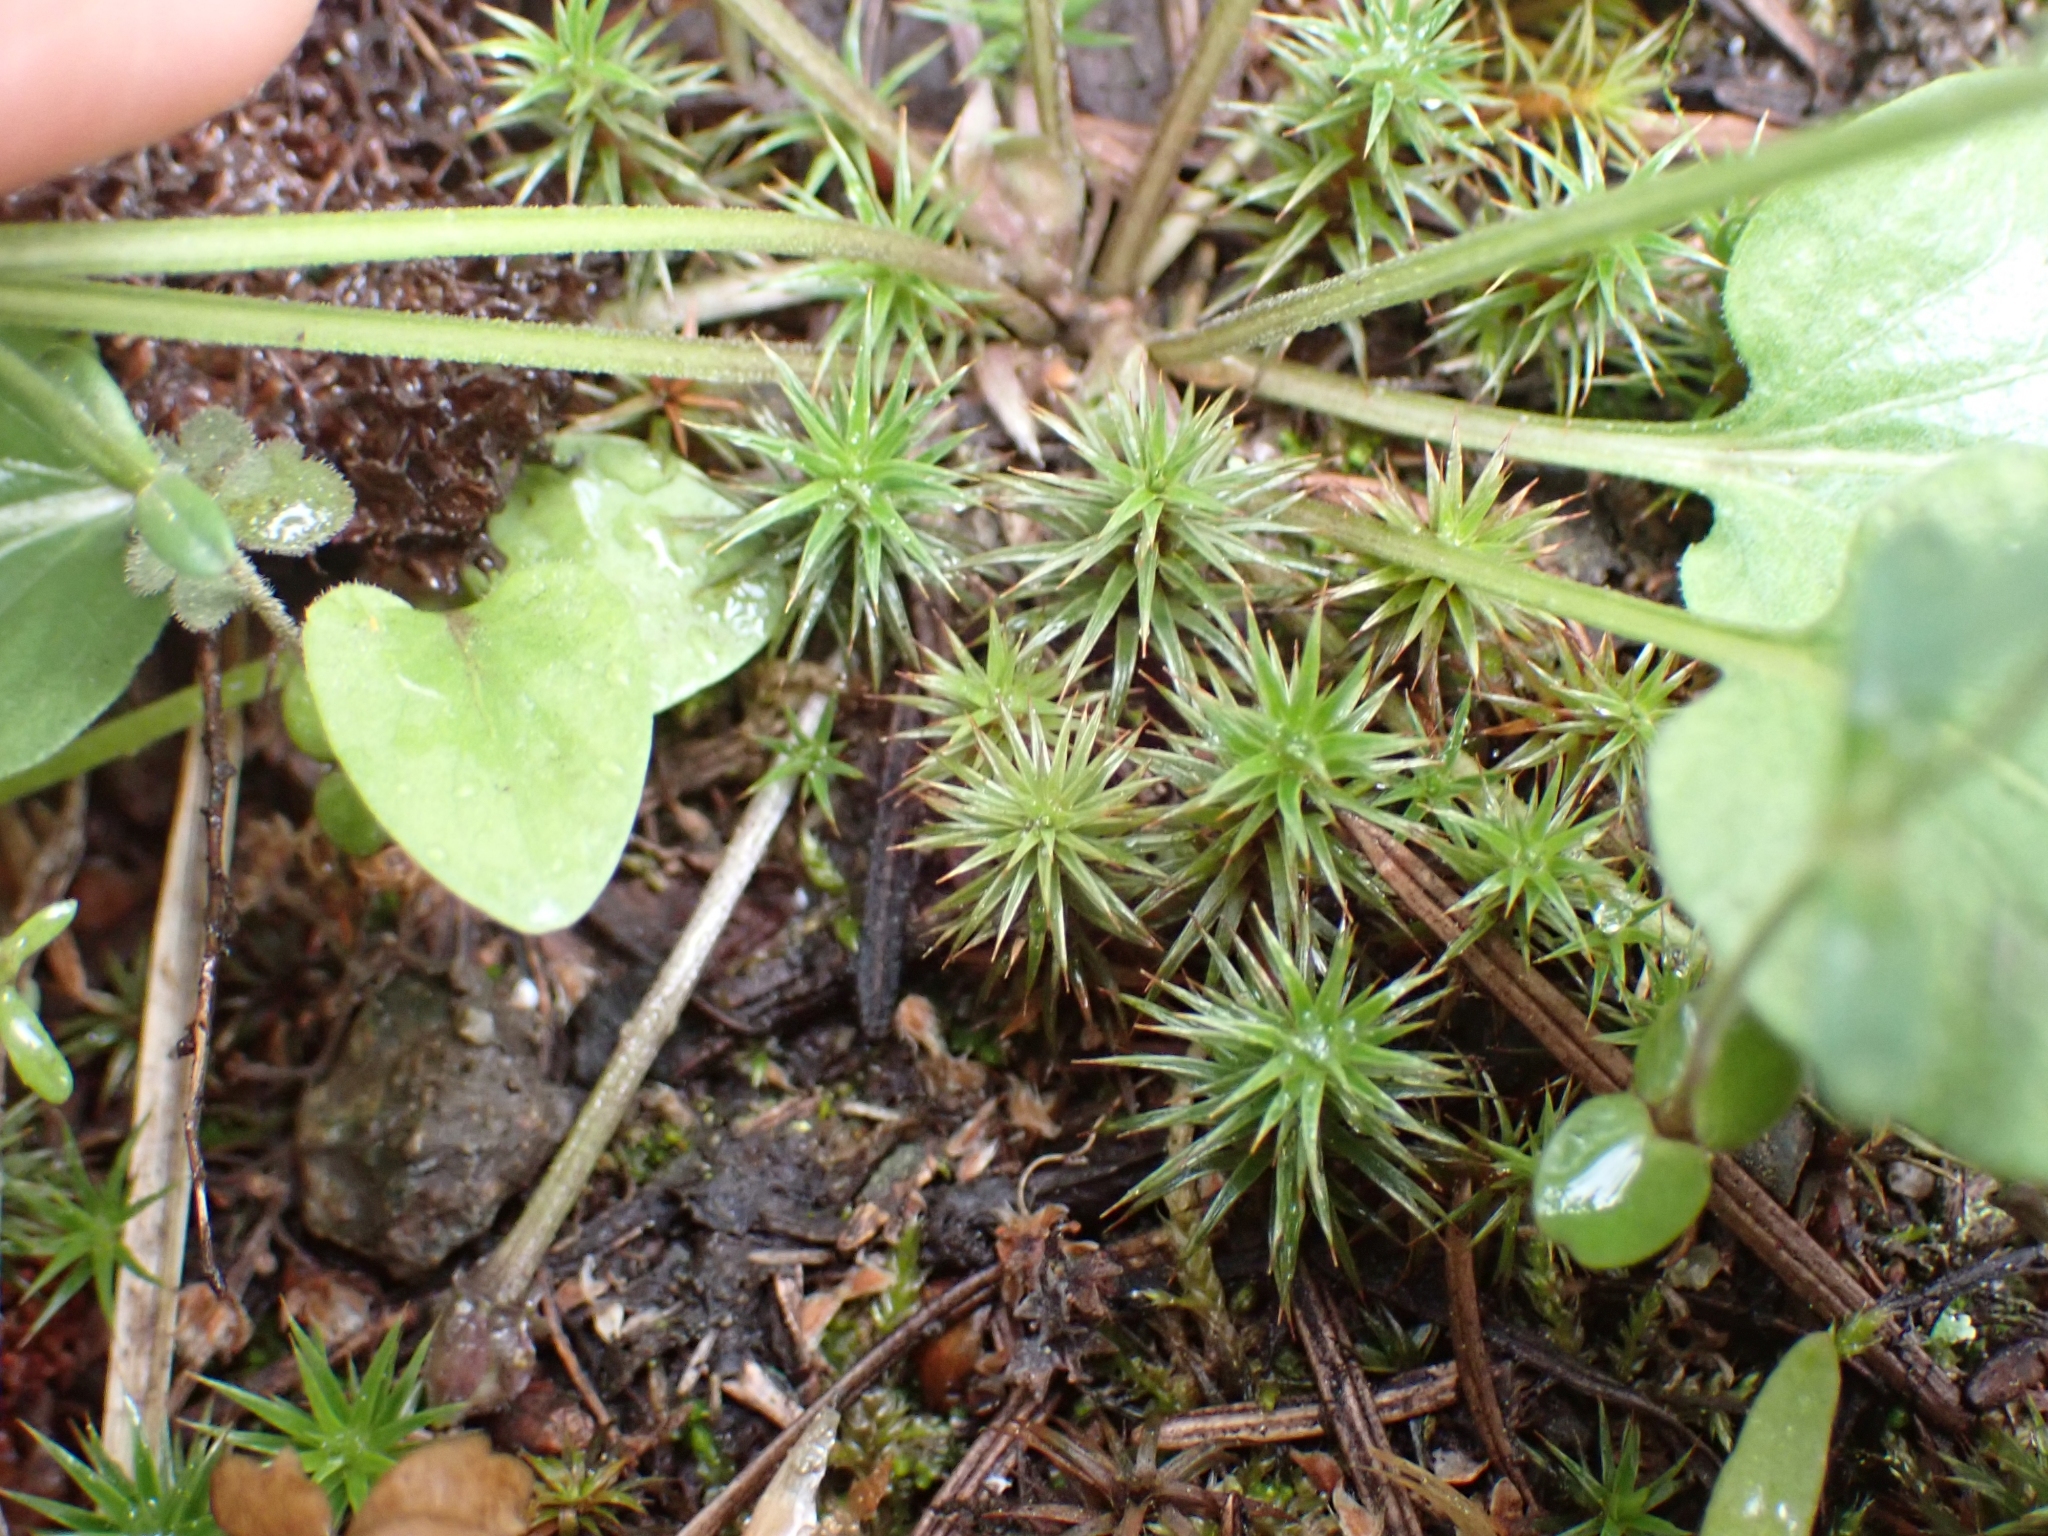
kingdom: Plantae
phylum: Bryophyta
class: Polytrichopsida
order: Polytrichales
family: Polytrichaceae
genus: Polytrichum
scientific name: Polytrichum juniperinum
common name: Juniper haircap moss
